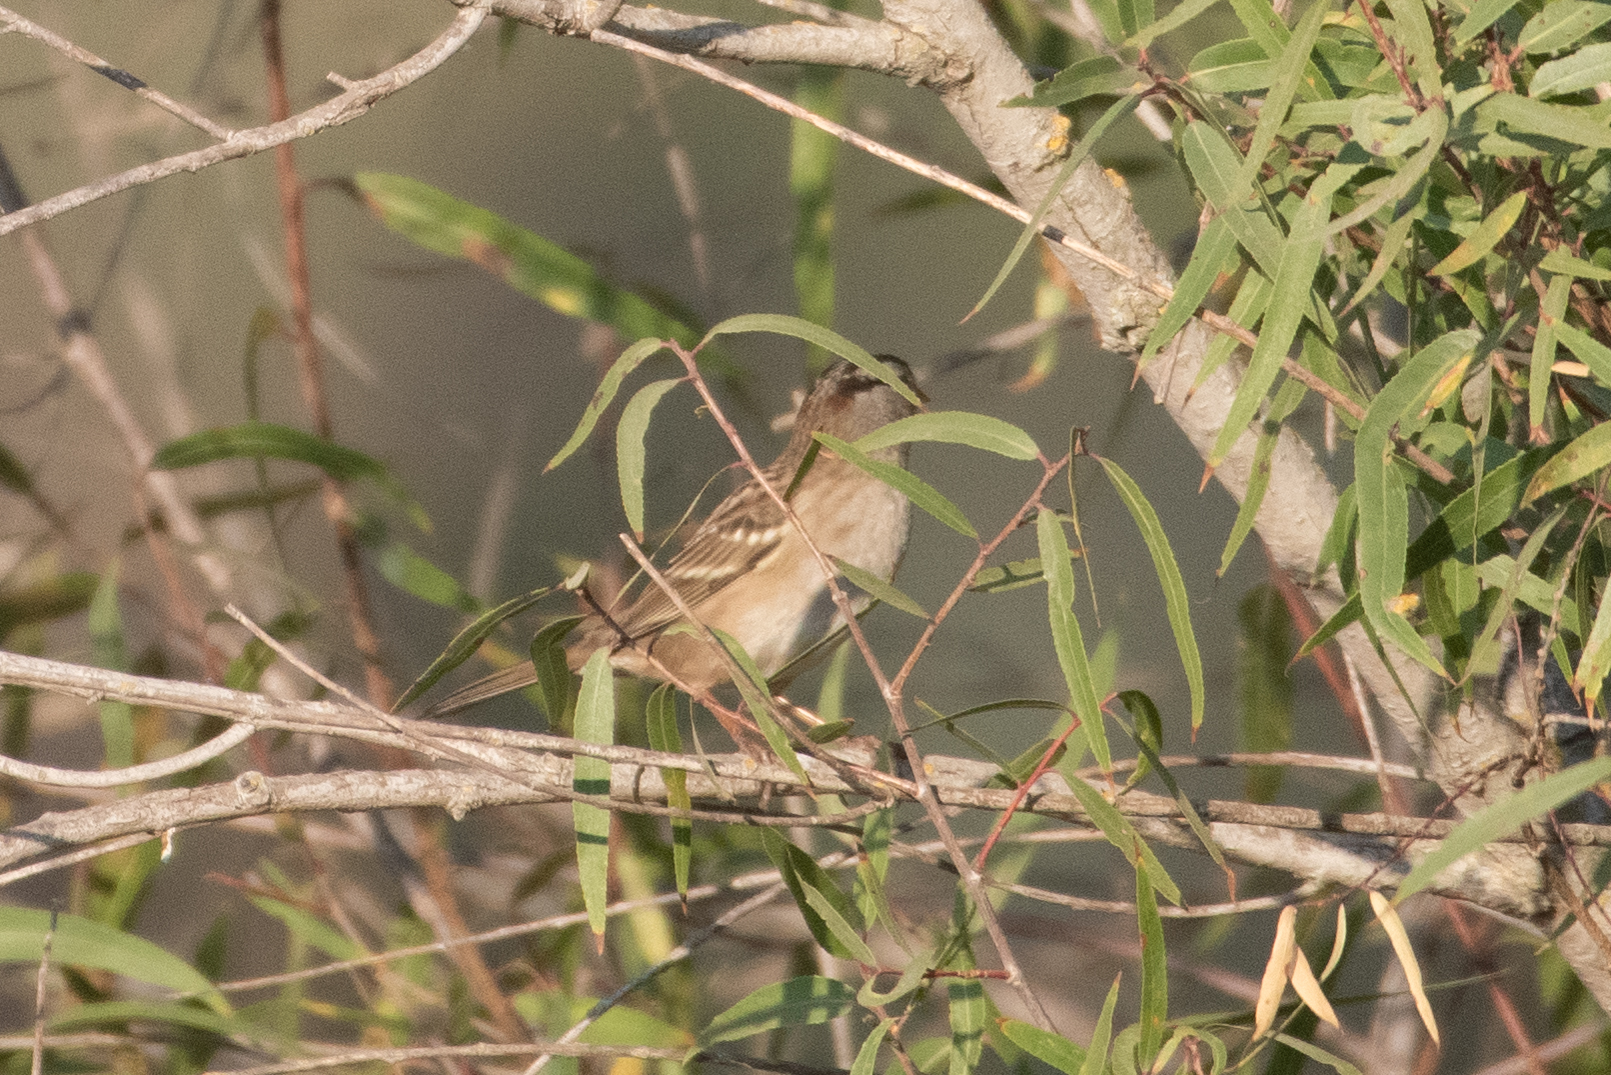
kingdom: Animalia
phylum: Chordata
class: Aves
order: Passeriformes
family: Passerellidae
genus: Zonotrichia
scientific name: Zonotrichia leucophrys
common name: White-crowned sparrow
